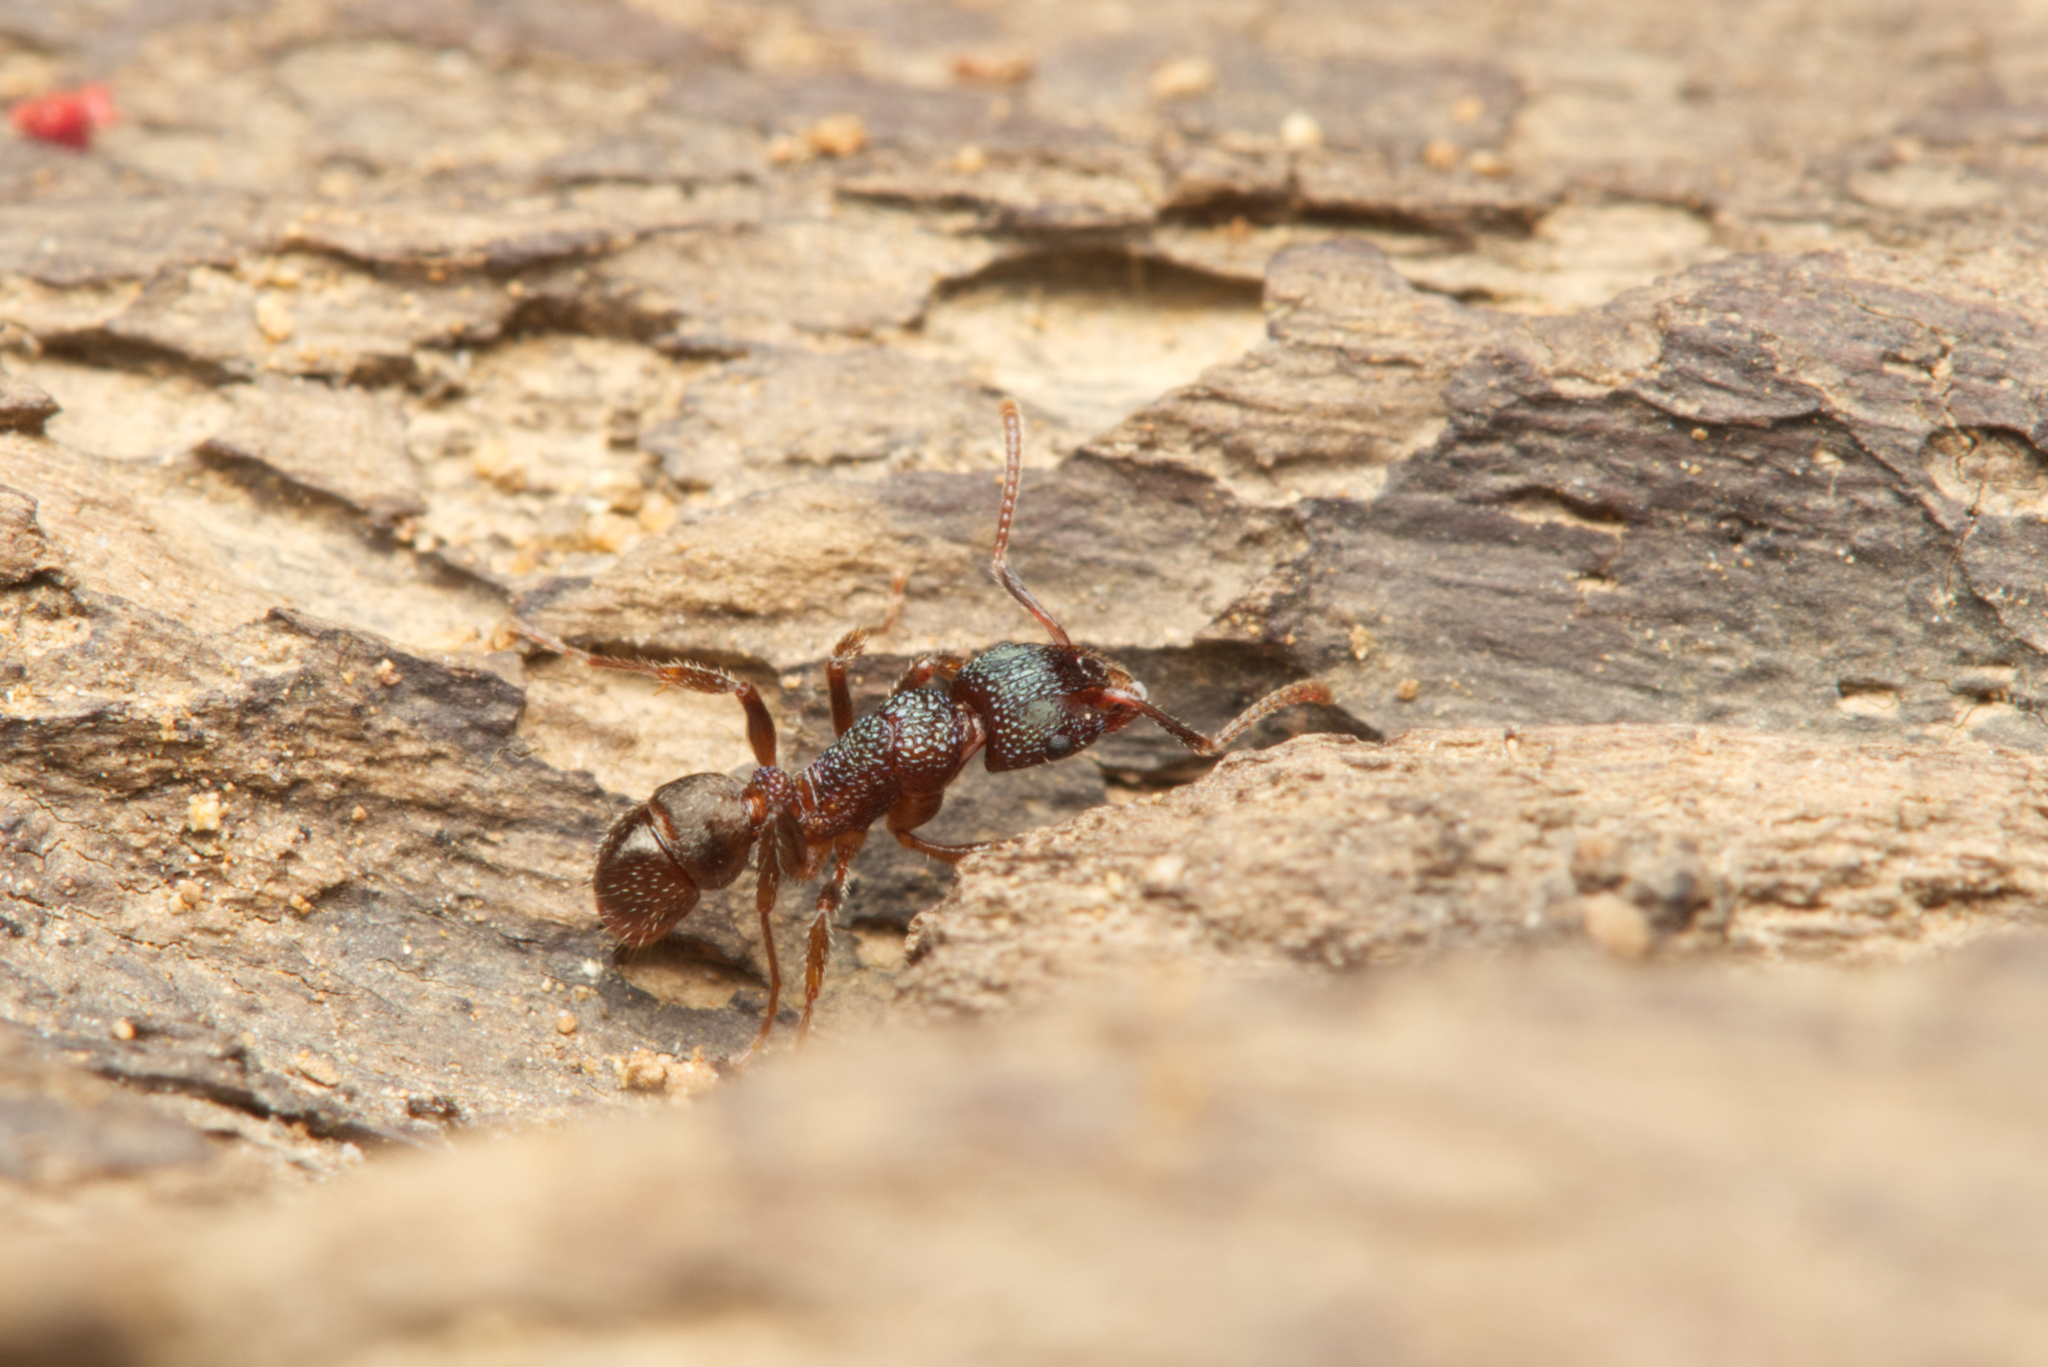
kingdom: Animalia
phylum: Arthropoda
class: Insecta
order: Hymenoptera
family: Formicidae
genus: Rhytidoponera
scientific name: Rhytidoponera victoriae
